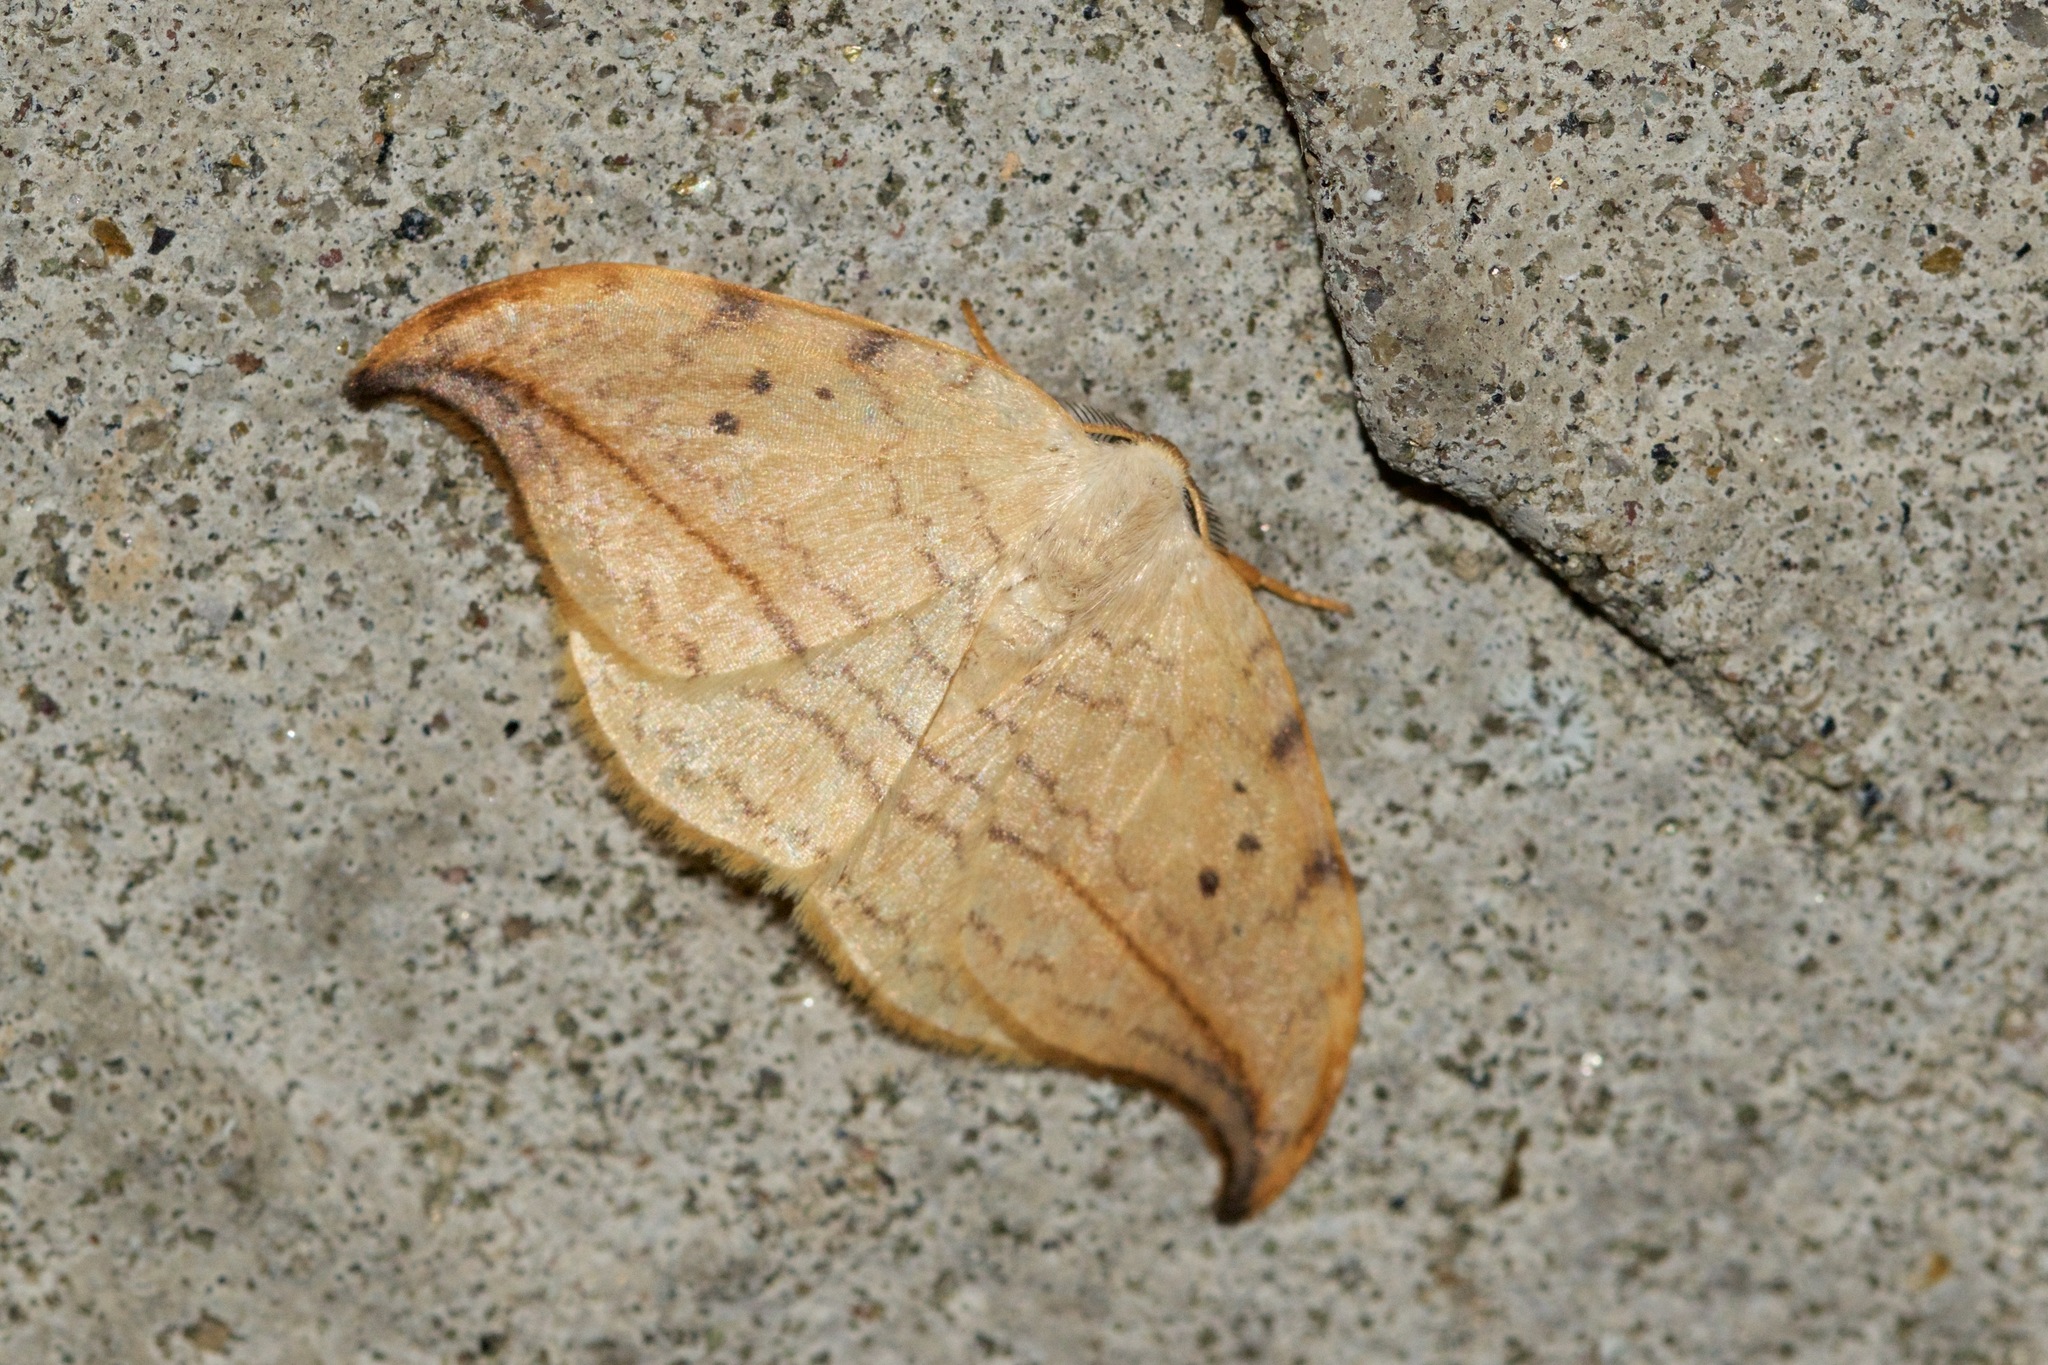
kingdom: Animalia
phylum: Arthropoda
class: Insecta
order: Lepidoptera
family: Drepanidae
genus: Drepana
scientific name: Drepana arcuata
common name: Arched hooktip moth
